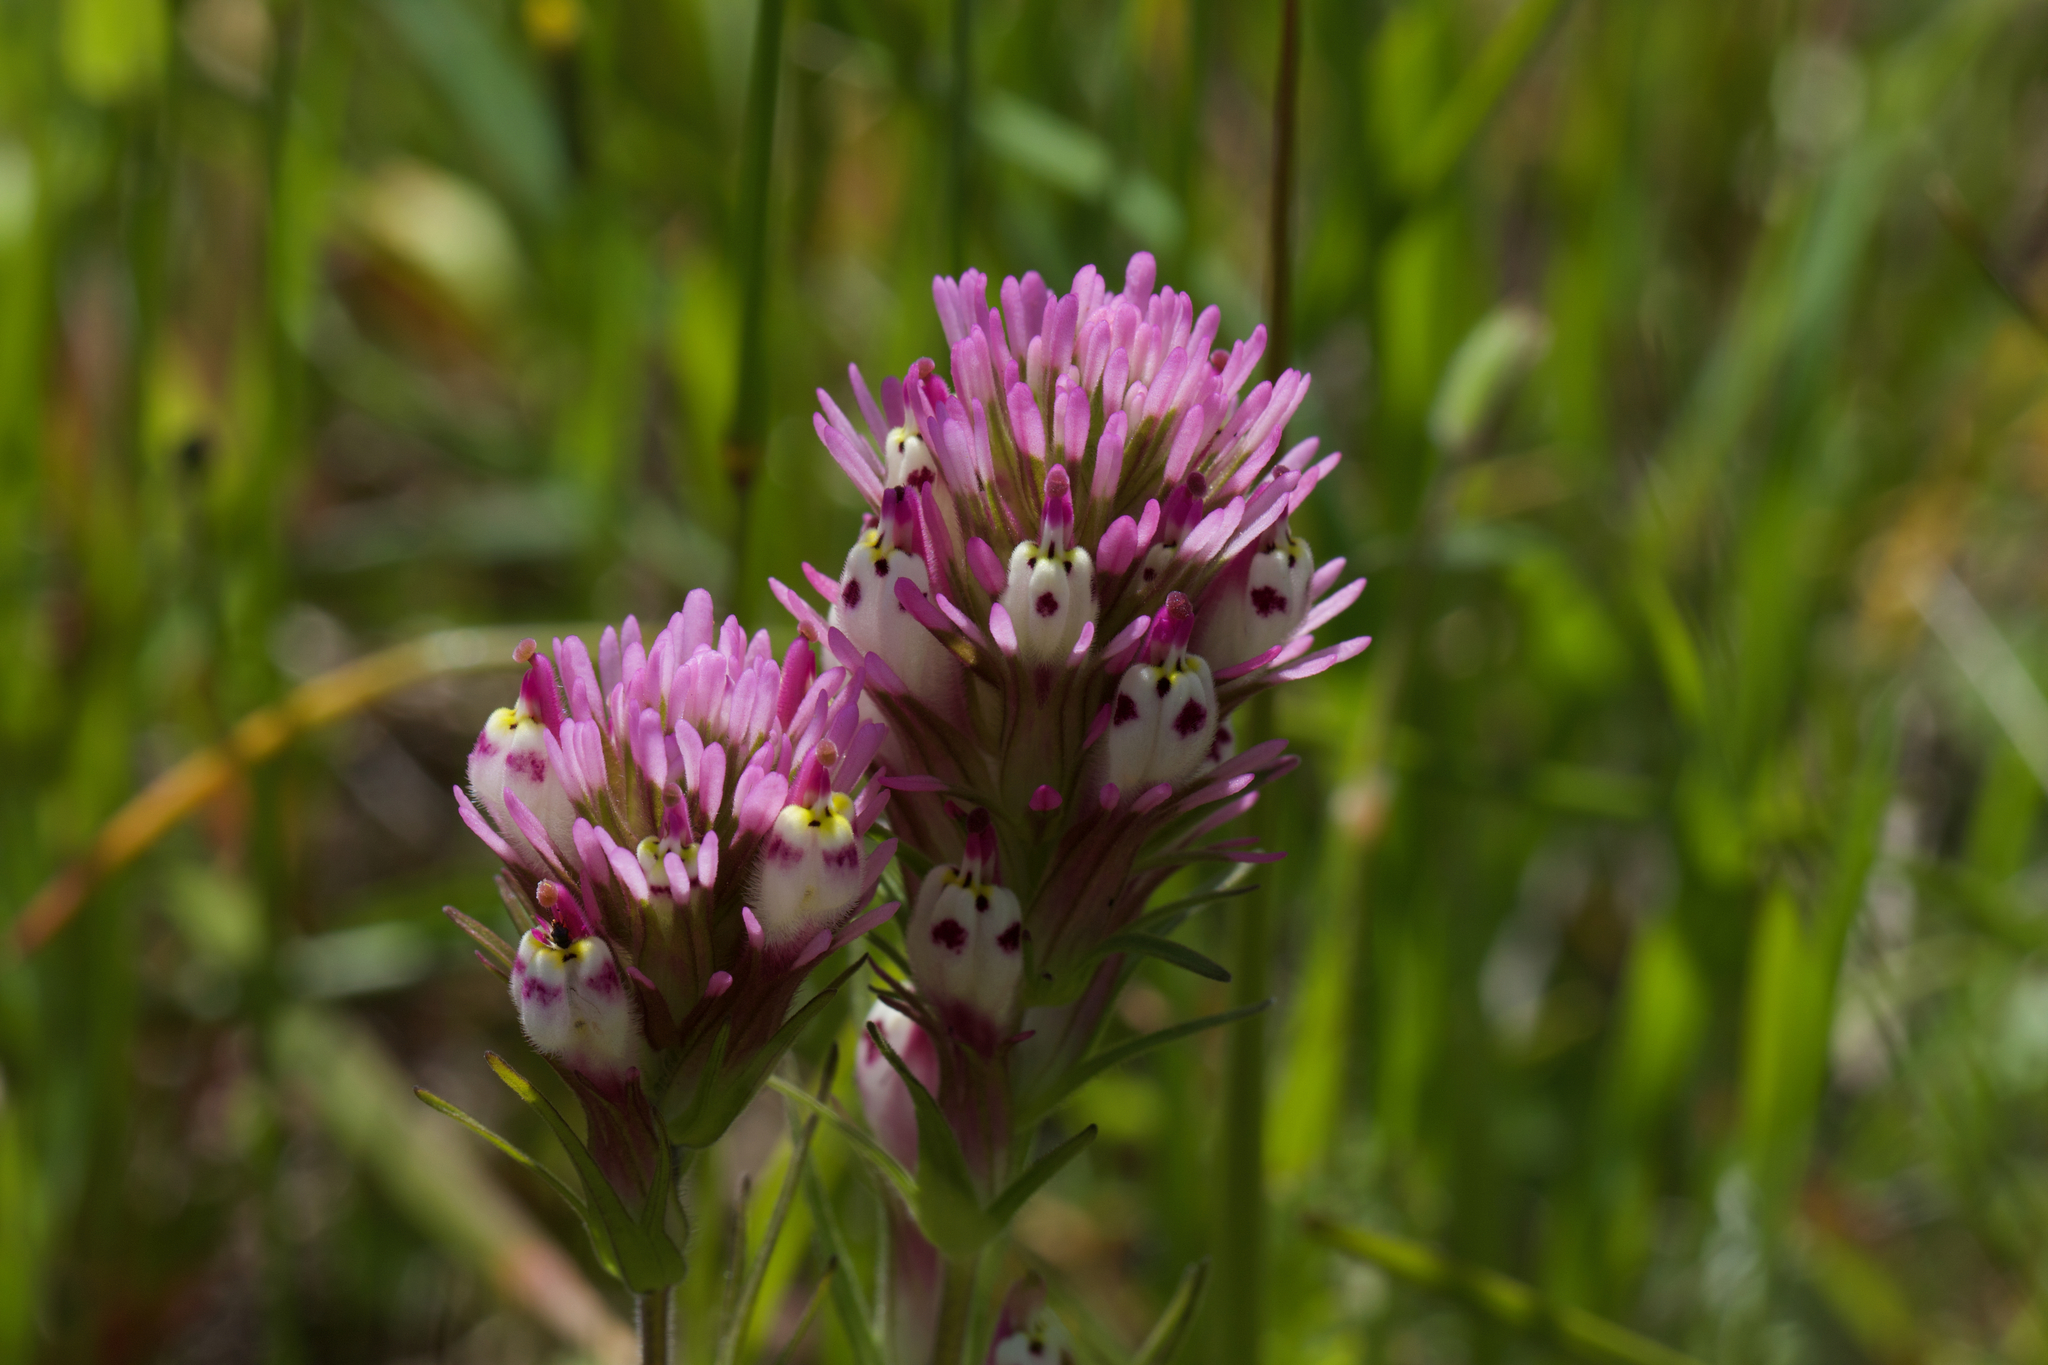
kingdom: Plantae
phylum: Tracheophyta
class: Magnoliopsida
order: Lamiales
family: Orobanchaceae
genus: Castilleja
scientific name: Castilleja densiflora
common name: Dense-flower indian paintbrush
